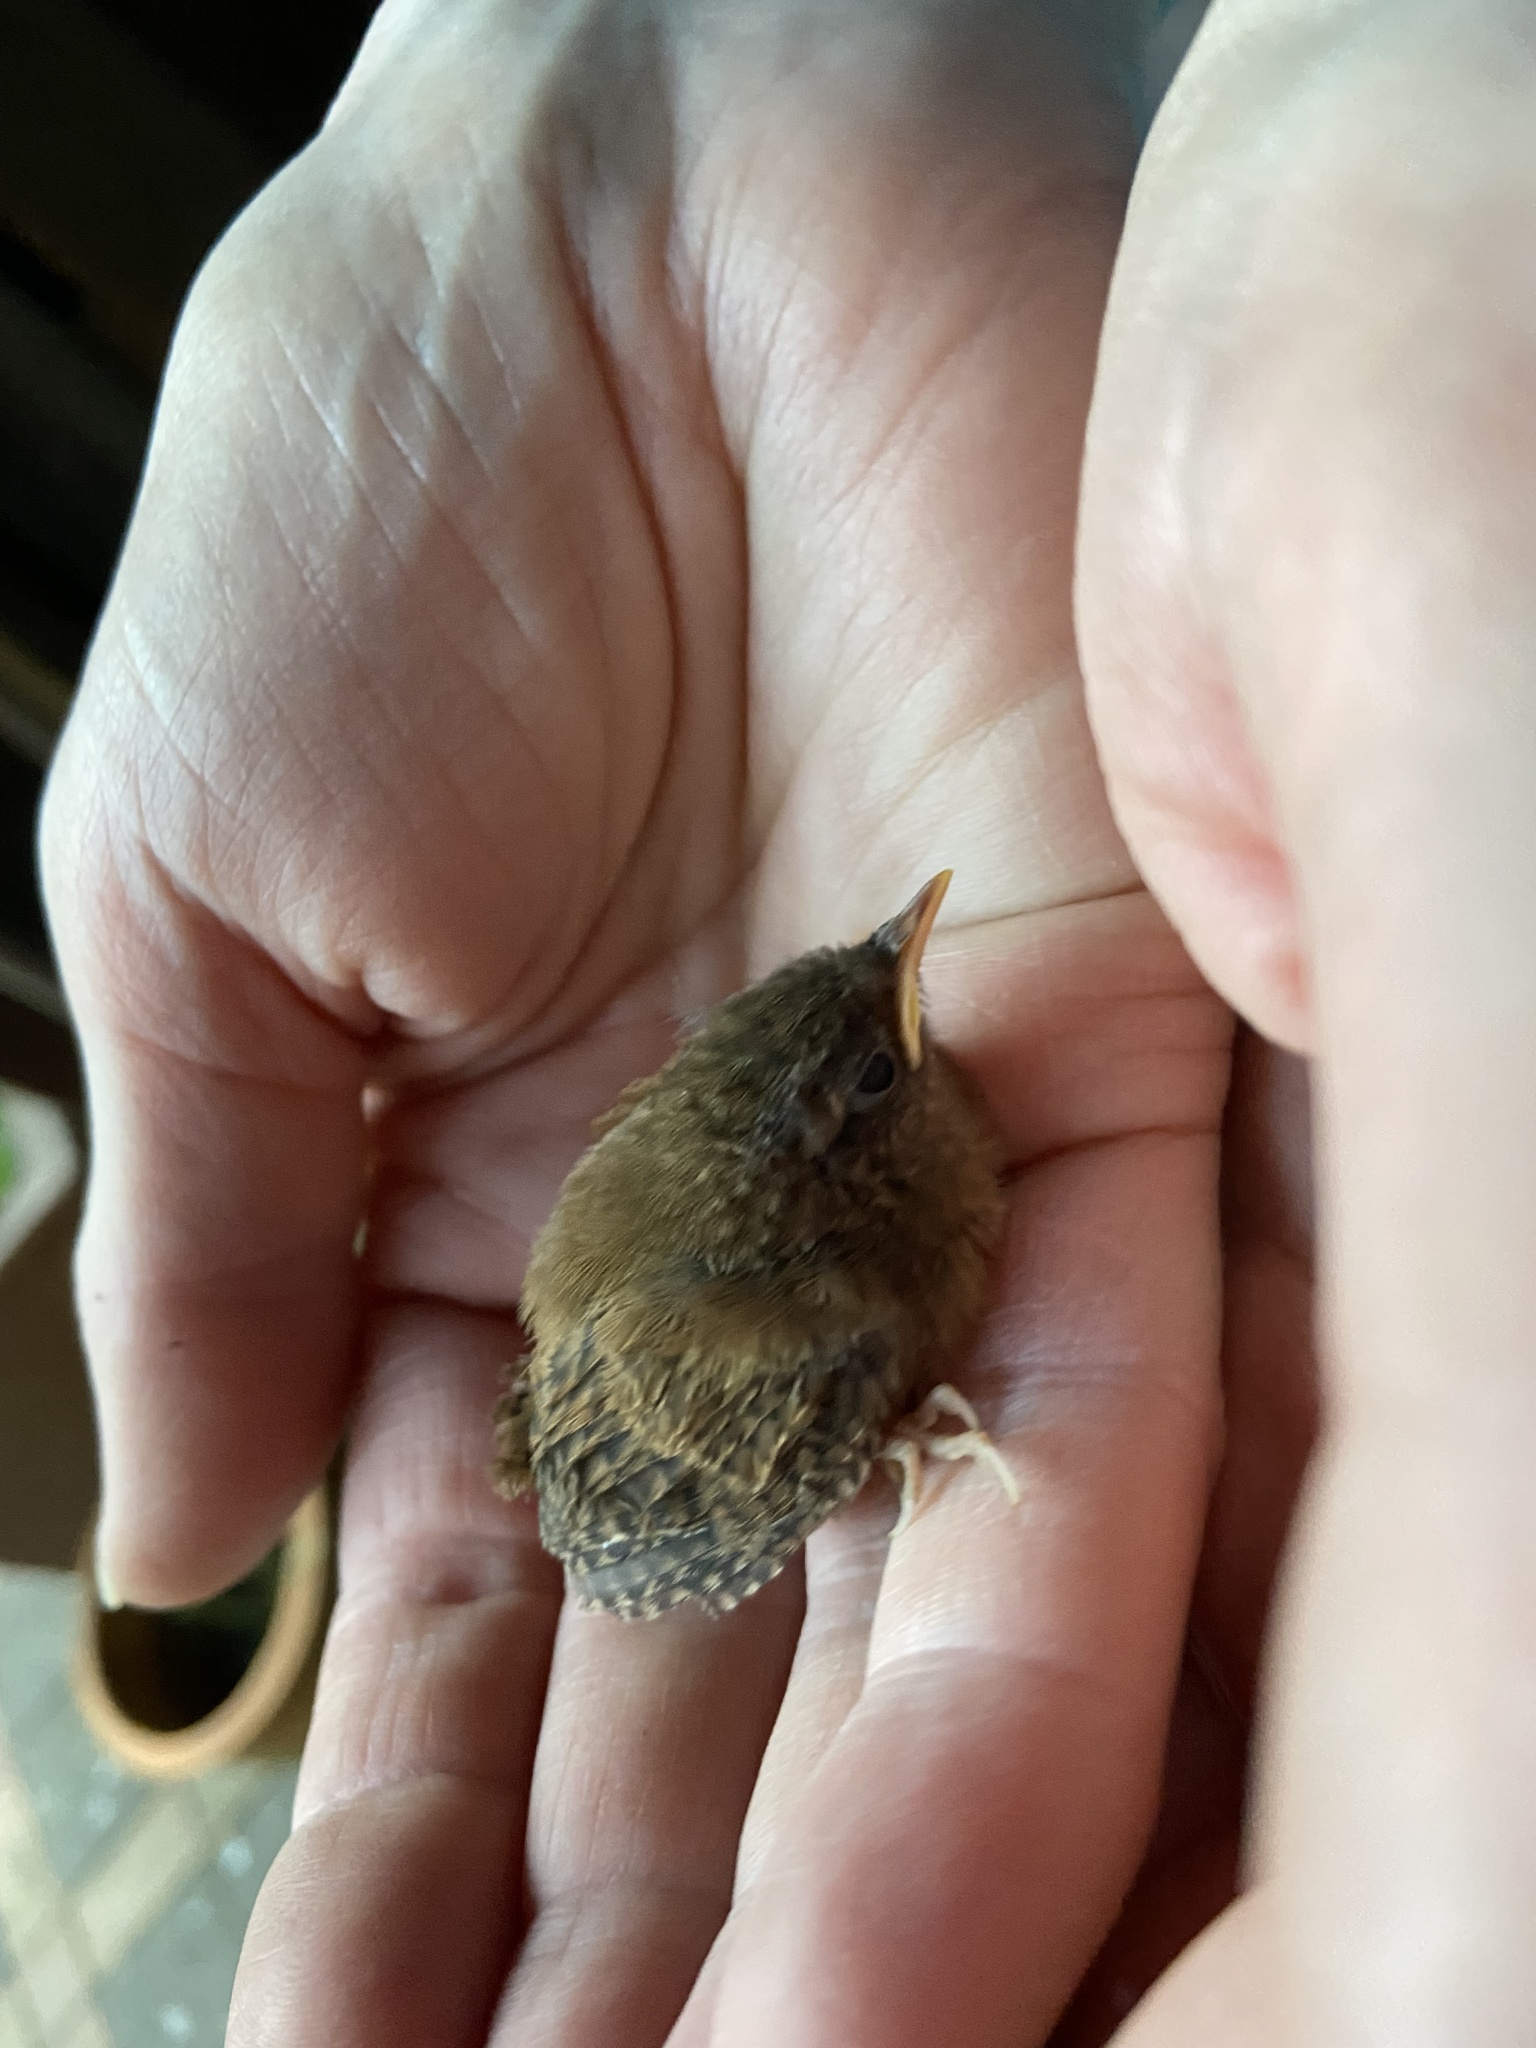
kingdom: Animalia
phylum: Chordata
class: Aves
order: Passeriformes
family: Troglodytidae
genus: Troglodytes
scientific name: Troglodytes troglodytes
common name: Eurasian wren
